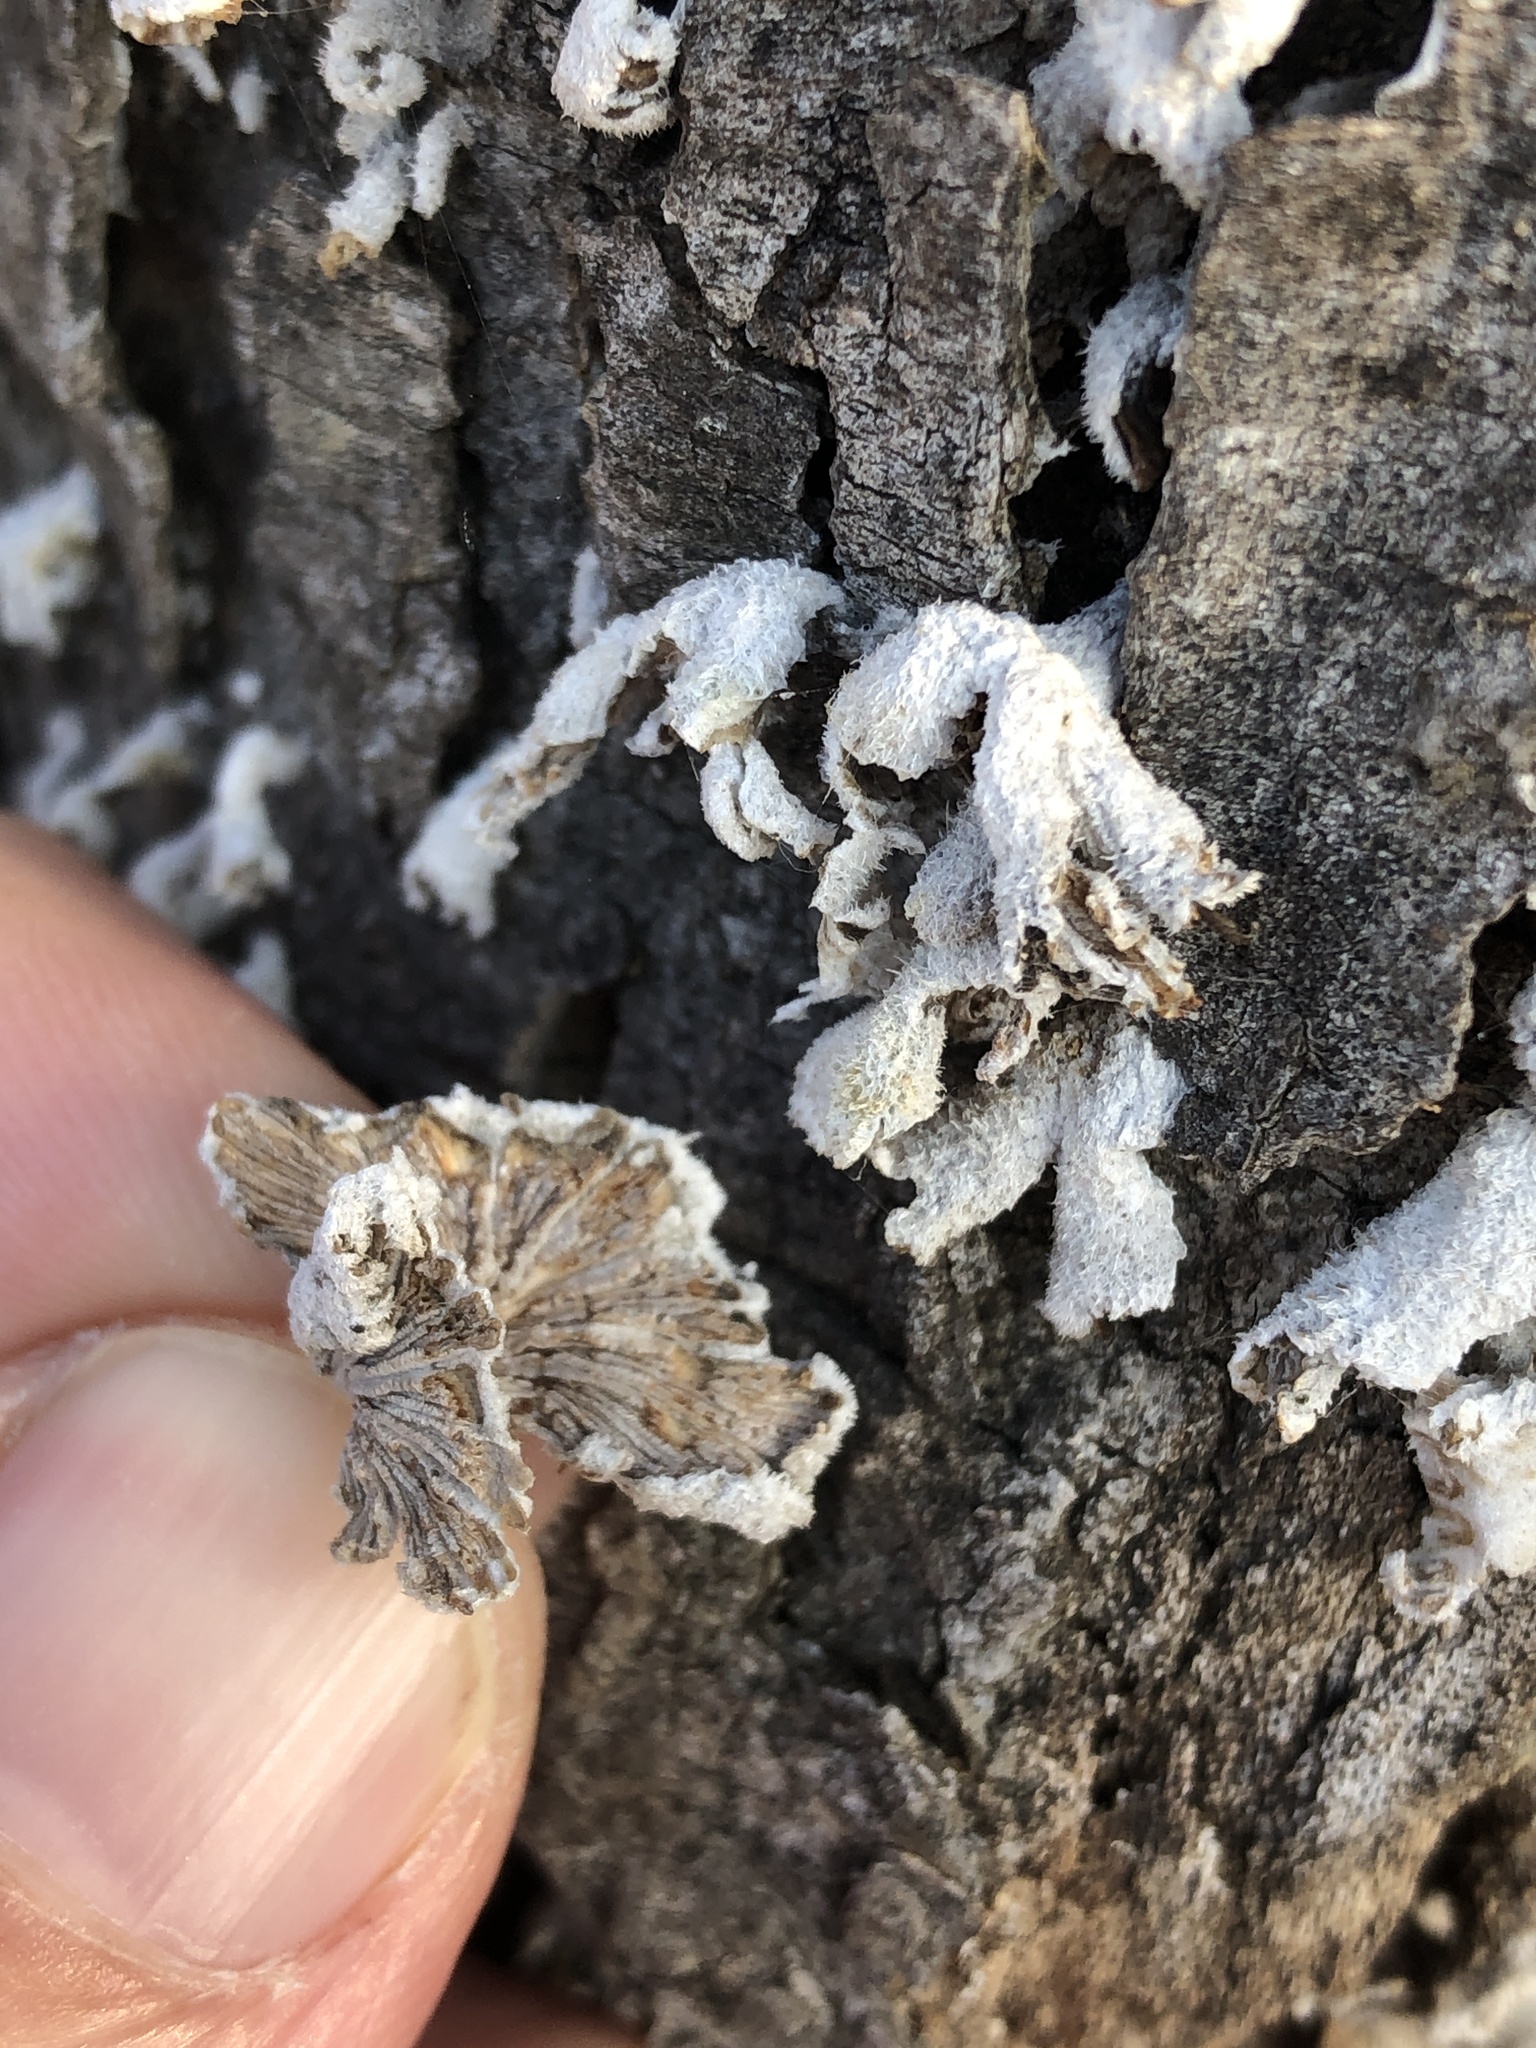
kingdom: Fungi
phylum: Basidiomycota
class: Agaricomycetes
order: Agaricales
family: Schizophyllaceae
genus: Schizophyllum
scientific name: Schizophyllum commune
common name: Common porecrust
